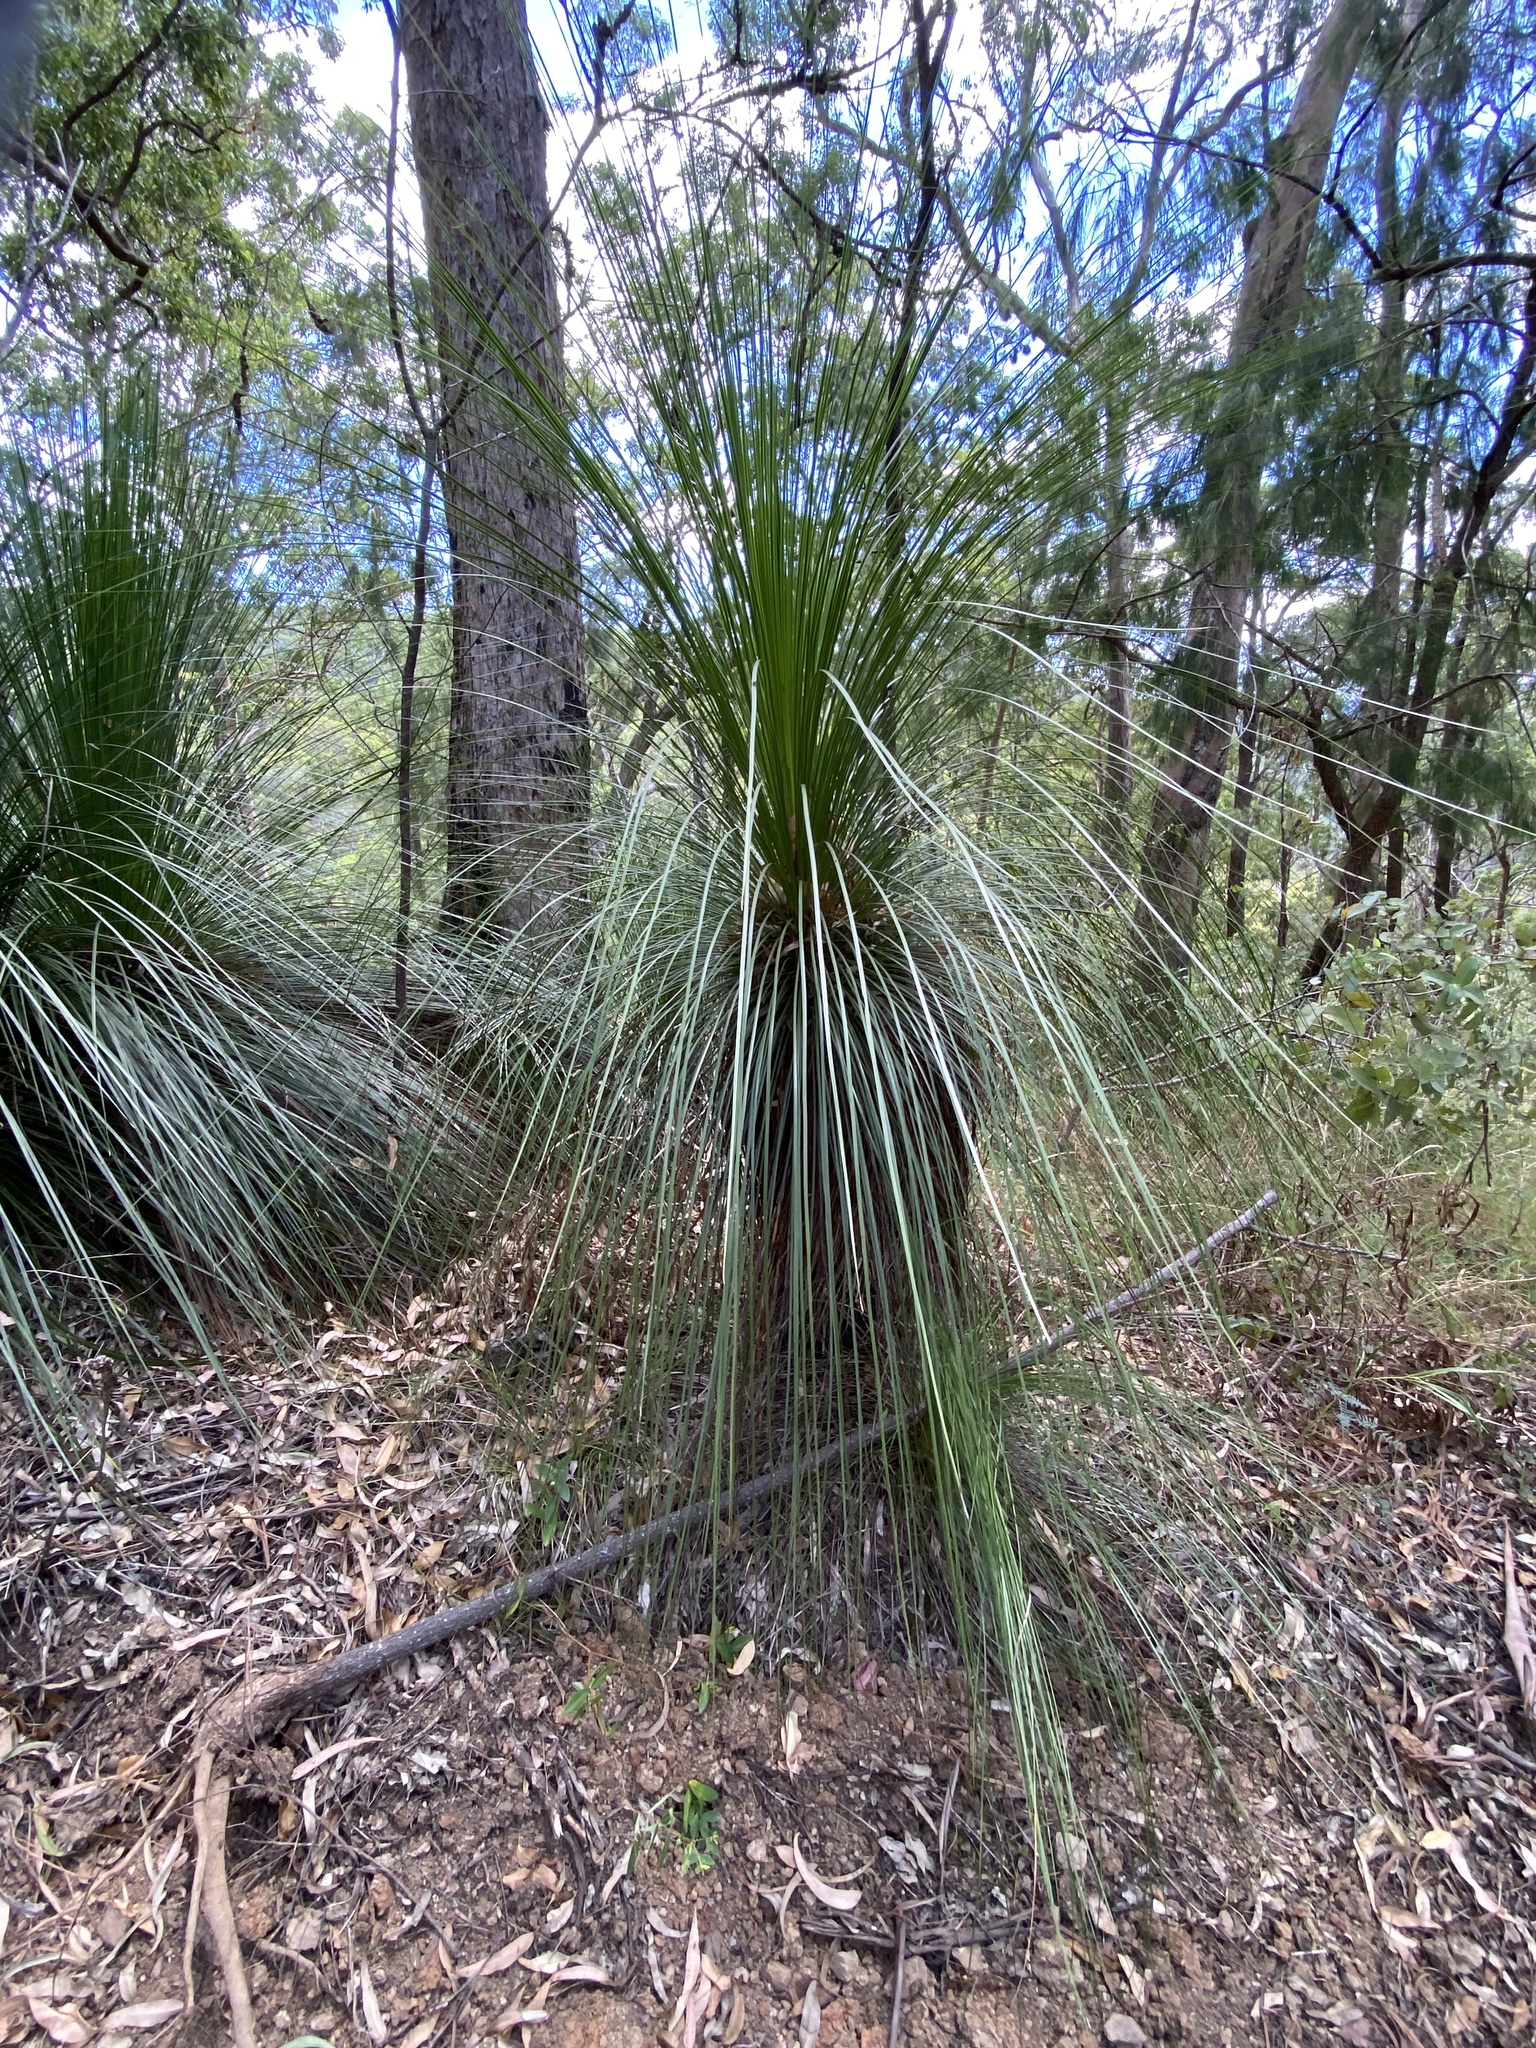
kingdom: Plantae
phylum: Tracheophyta
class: Liliopsida
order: Asparagales
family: Asphodelaceae
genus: Xanthorrhoea
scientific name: Xanthorrhoea latifolia
